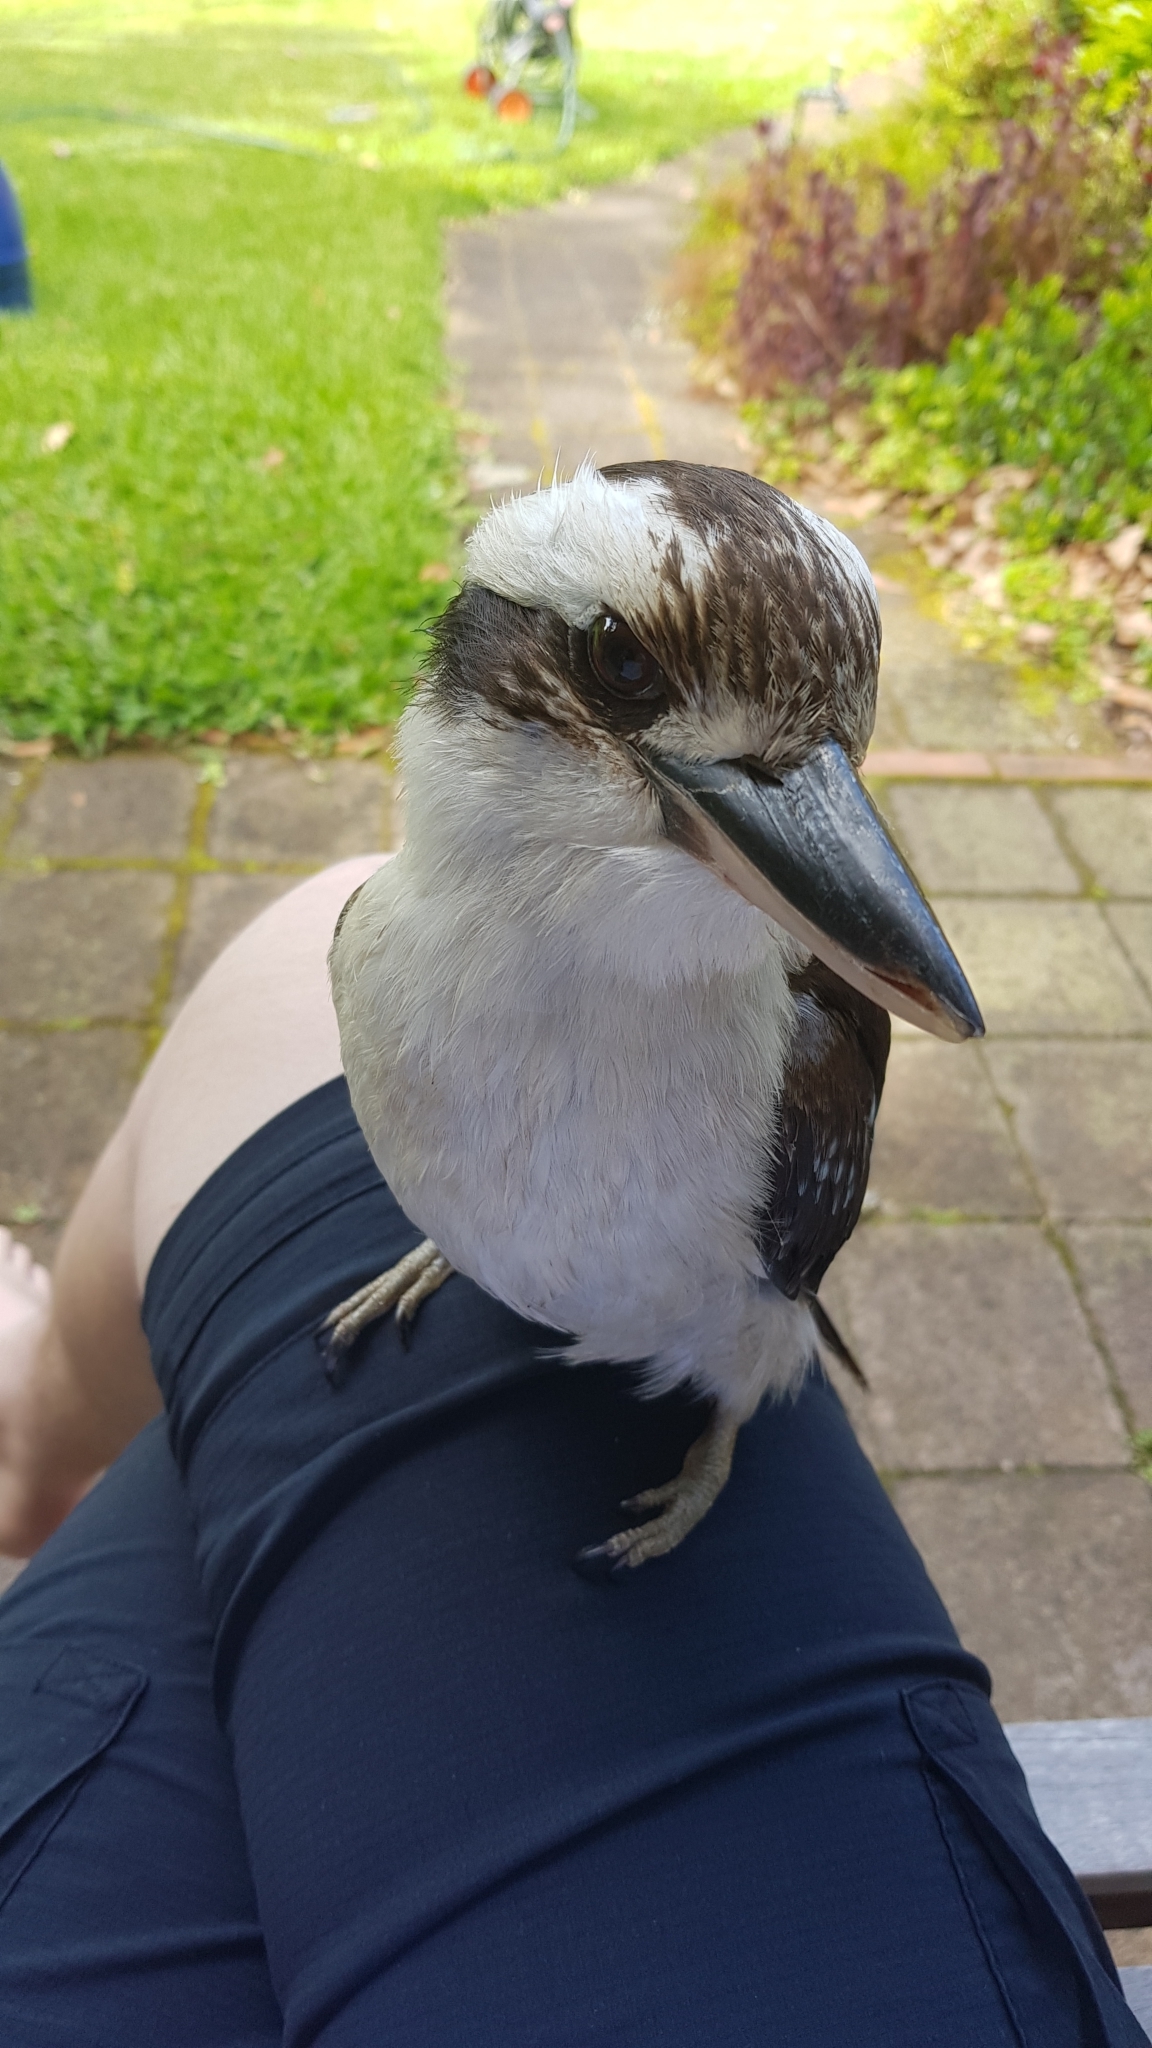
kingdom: Animalia
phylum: Chordata
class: Aves
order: Coraciiformes
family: Alcedinidae
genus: Dacelo
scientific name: Dacelo novaeguineae
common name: Laughing kookaburra
